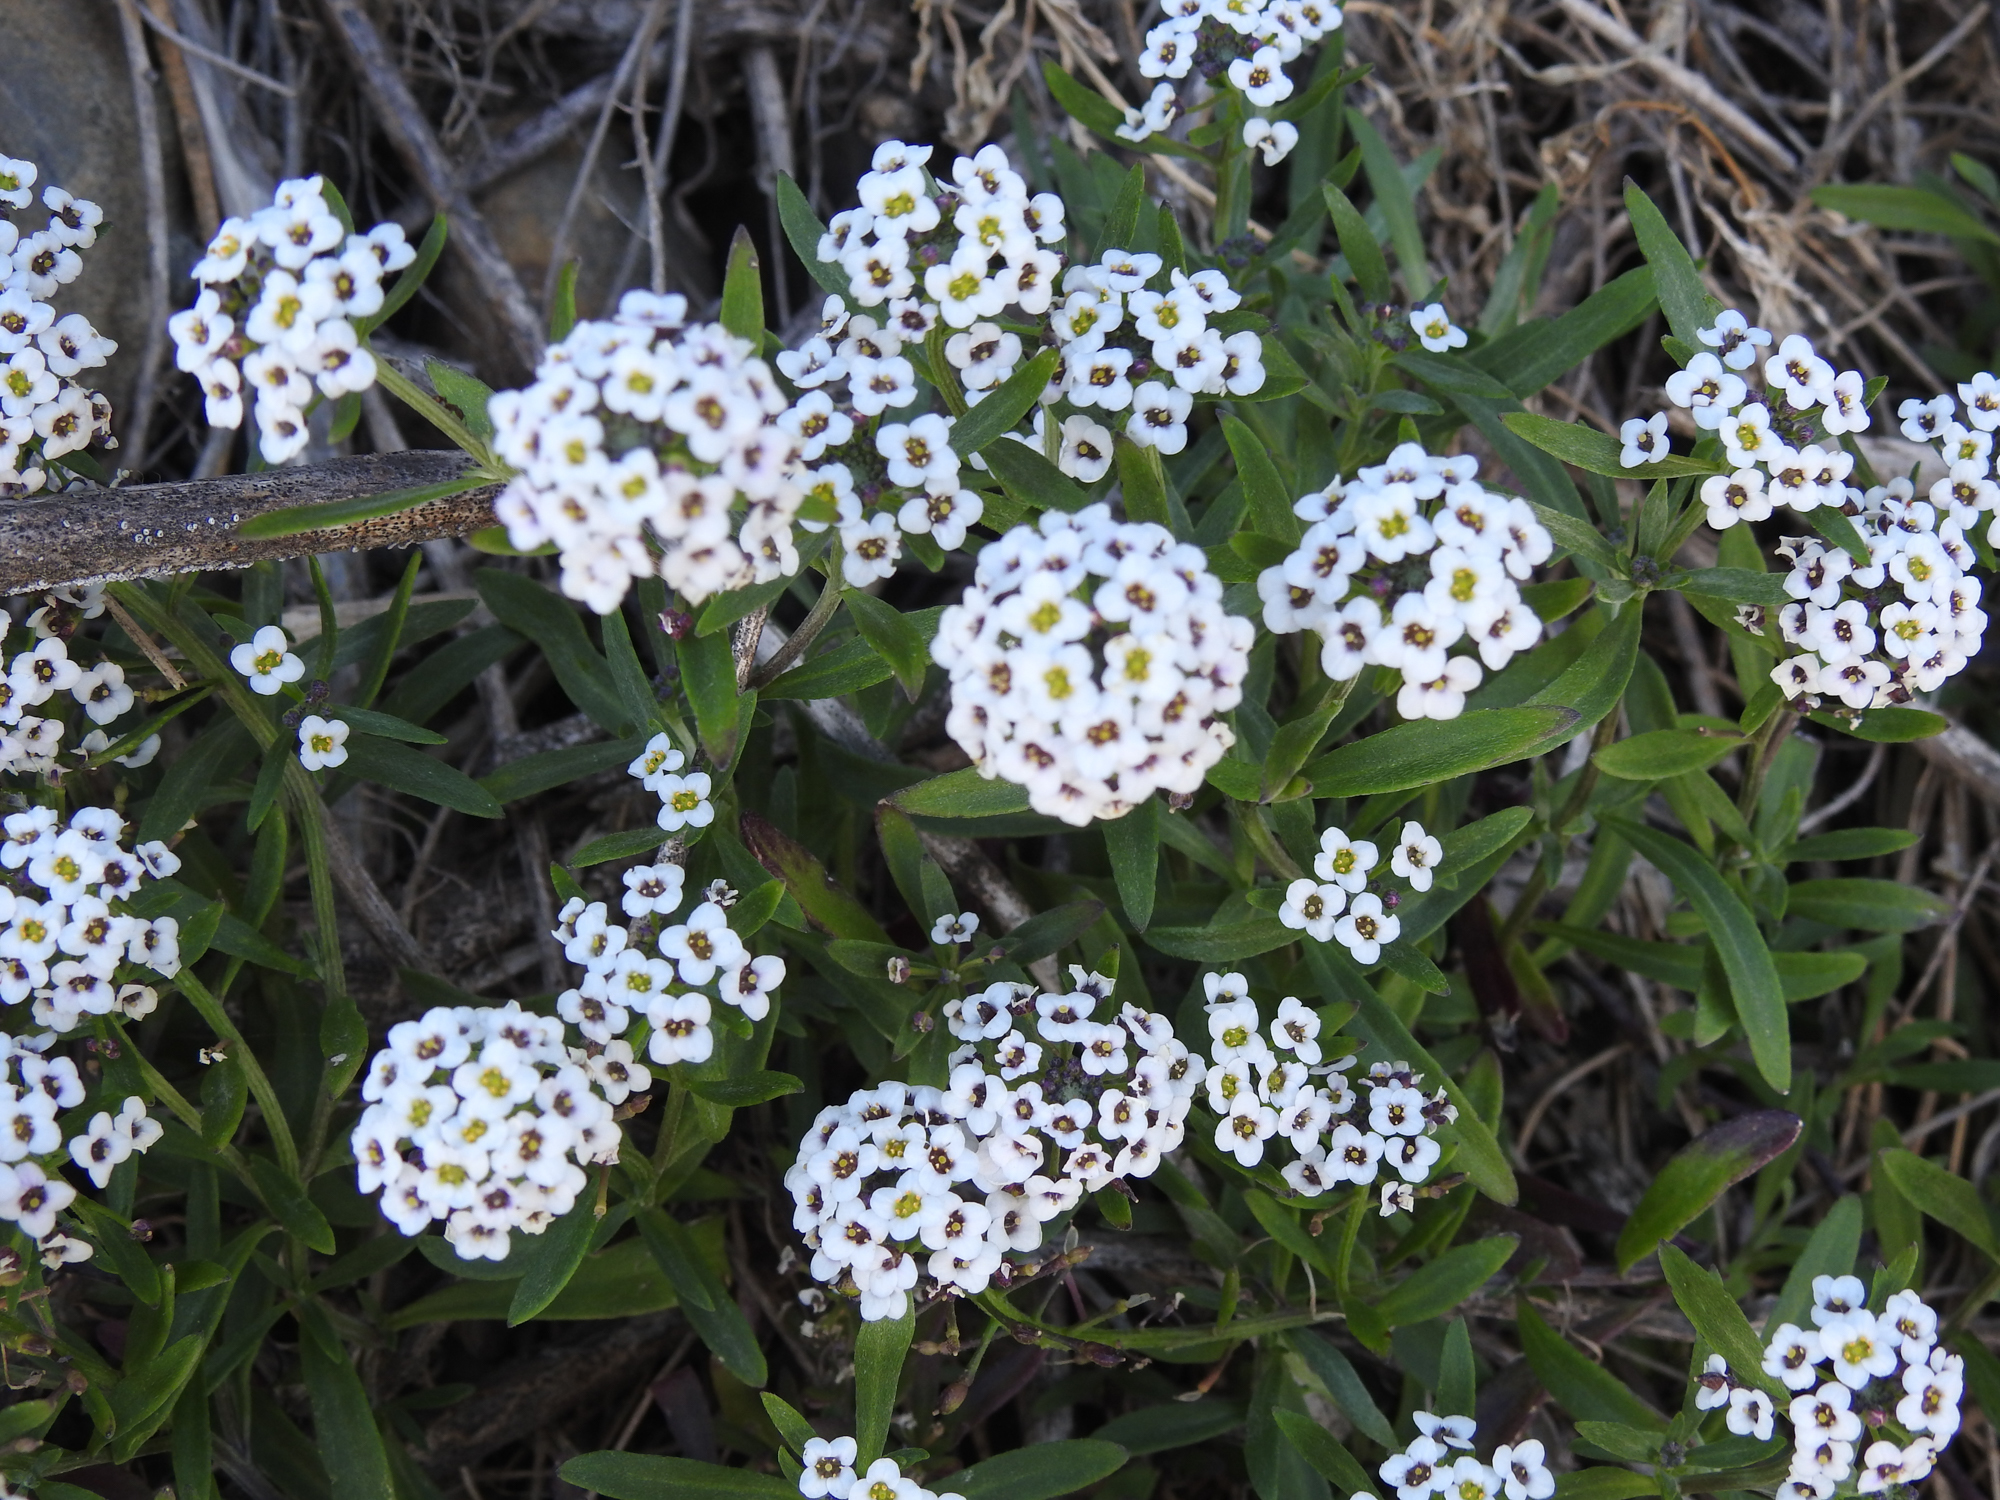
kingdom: Plantae
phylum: Tracheophyta
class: Magnoliopsida
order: Brassicales
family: Brassicaceae
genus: Lobularia
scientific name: Lobularia maritima
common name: Sweet alison
